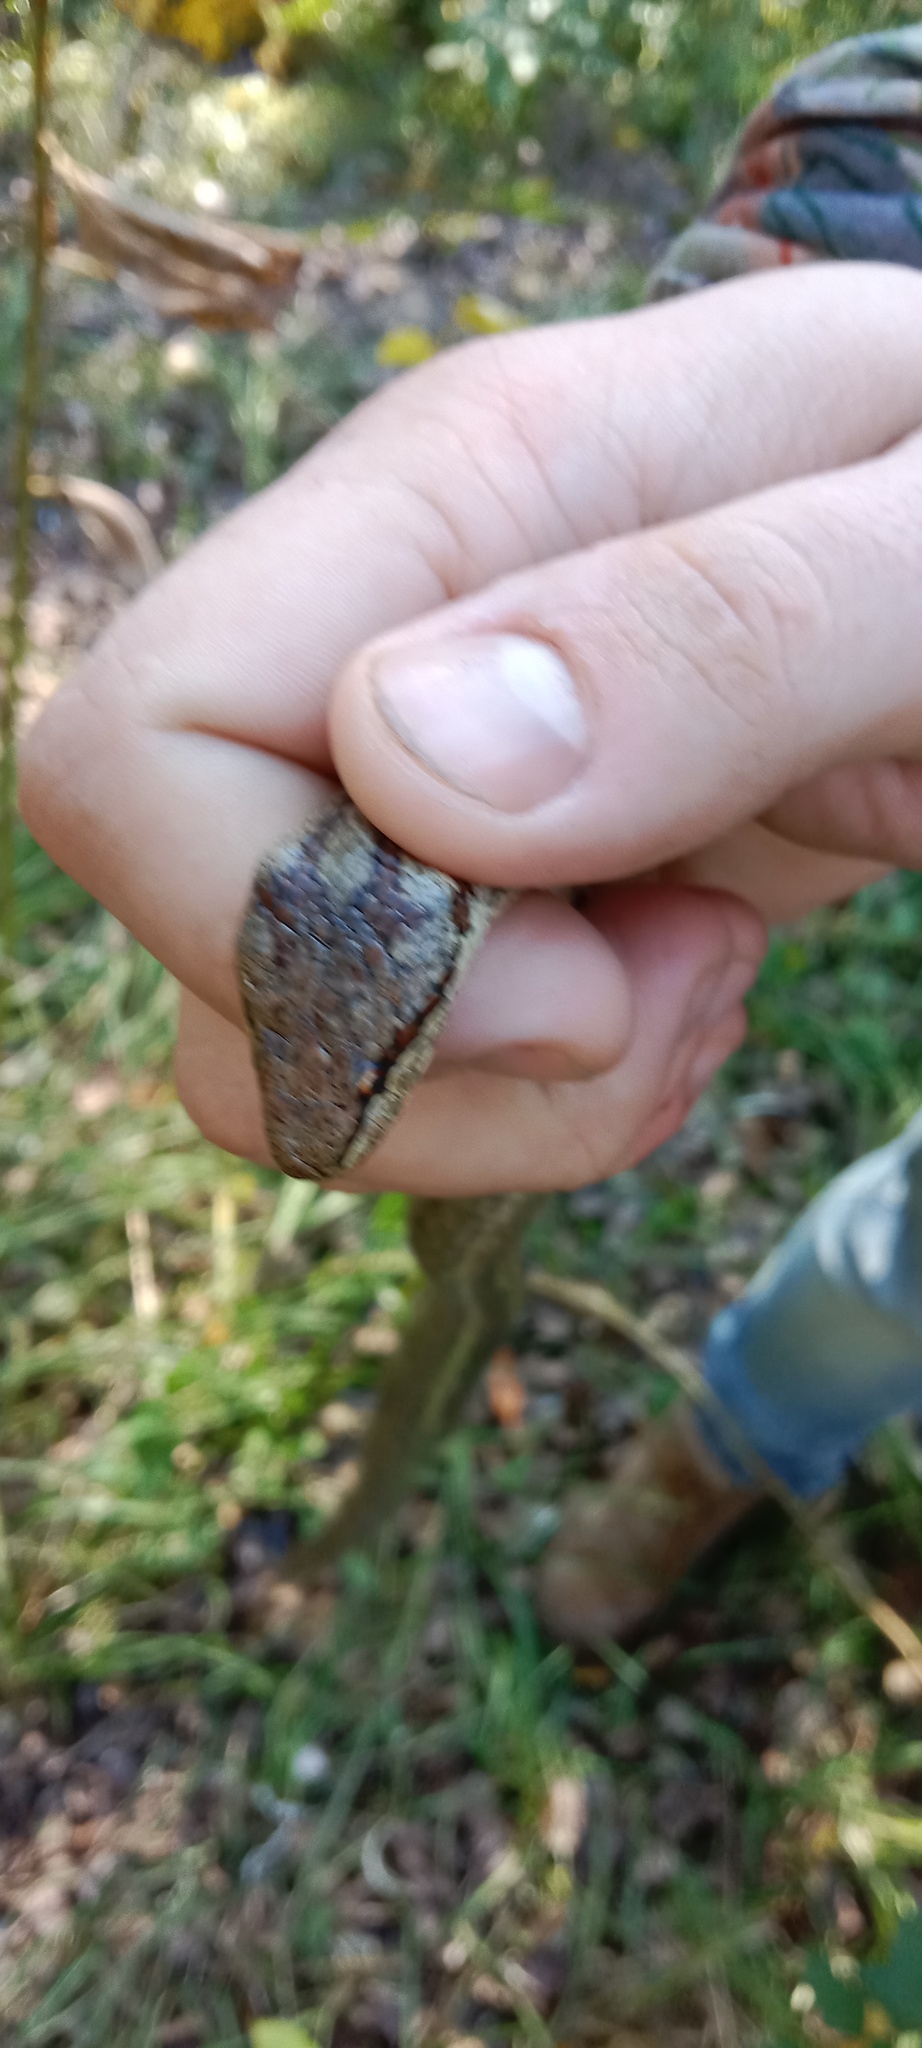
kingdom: Animalia
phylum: Chordata
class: Squamata
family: Colubridae
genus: Coronella
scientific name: Coronella austriaca
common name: Smooth snake
